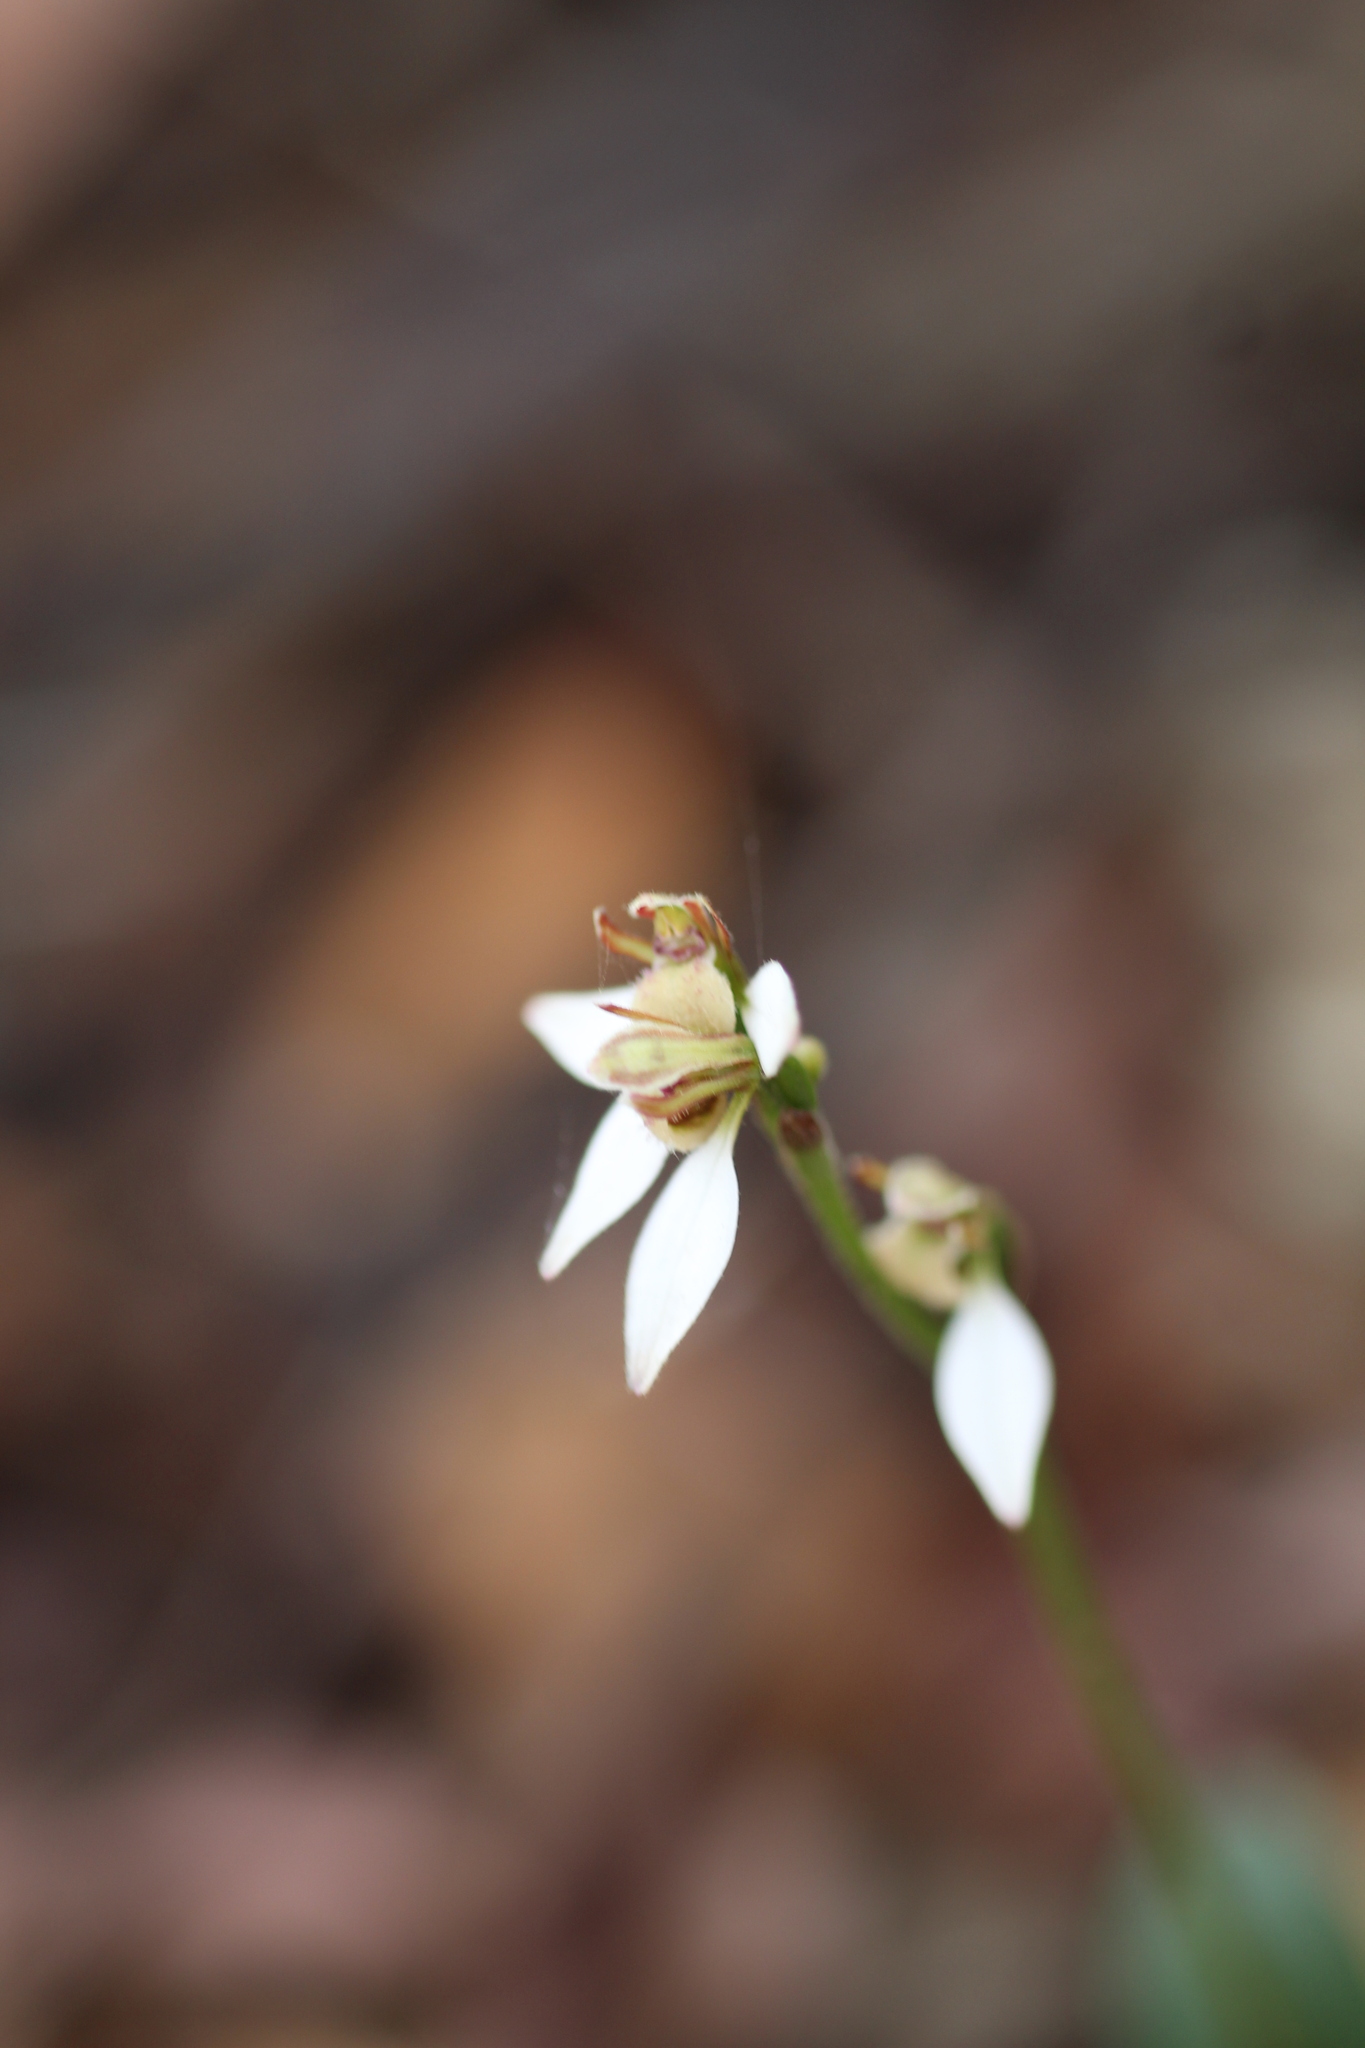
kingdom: Plantae
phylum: Tracheophyta
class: Liliopsida
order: Asparagales
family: Orchidaceae
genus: Eriochilus
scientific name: Eriochilus dilatatus
